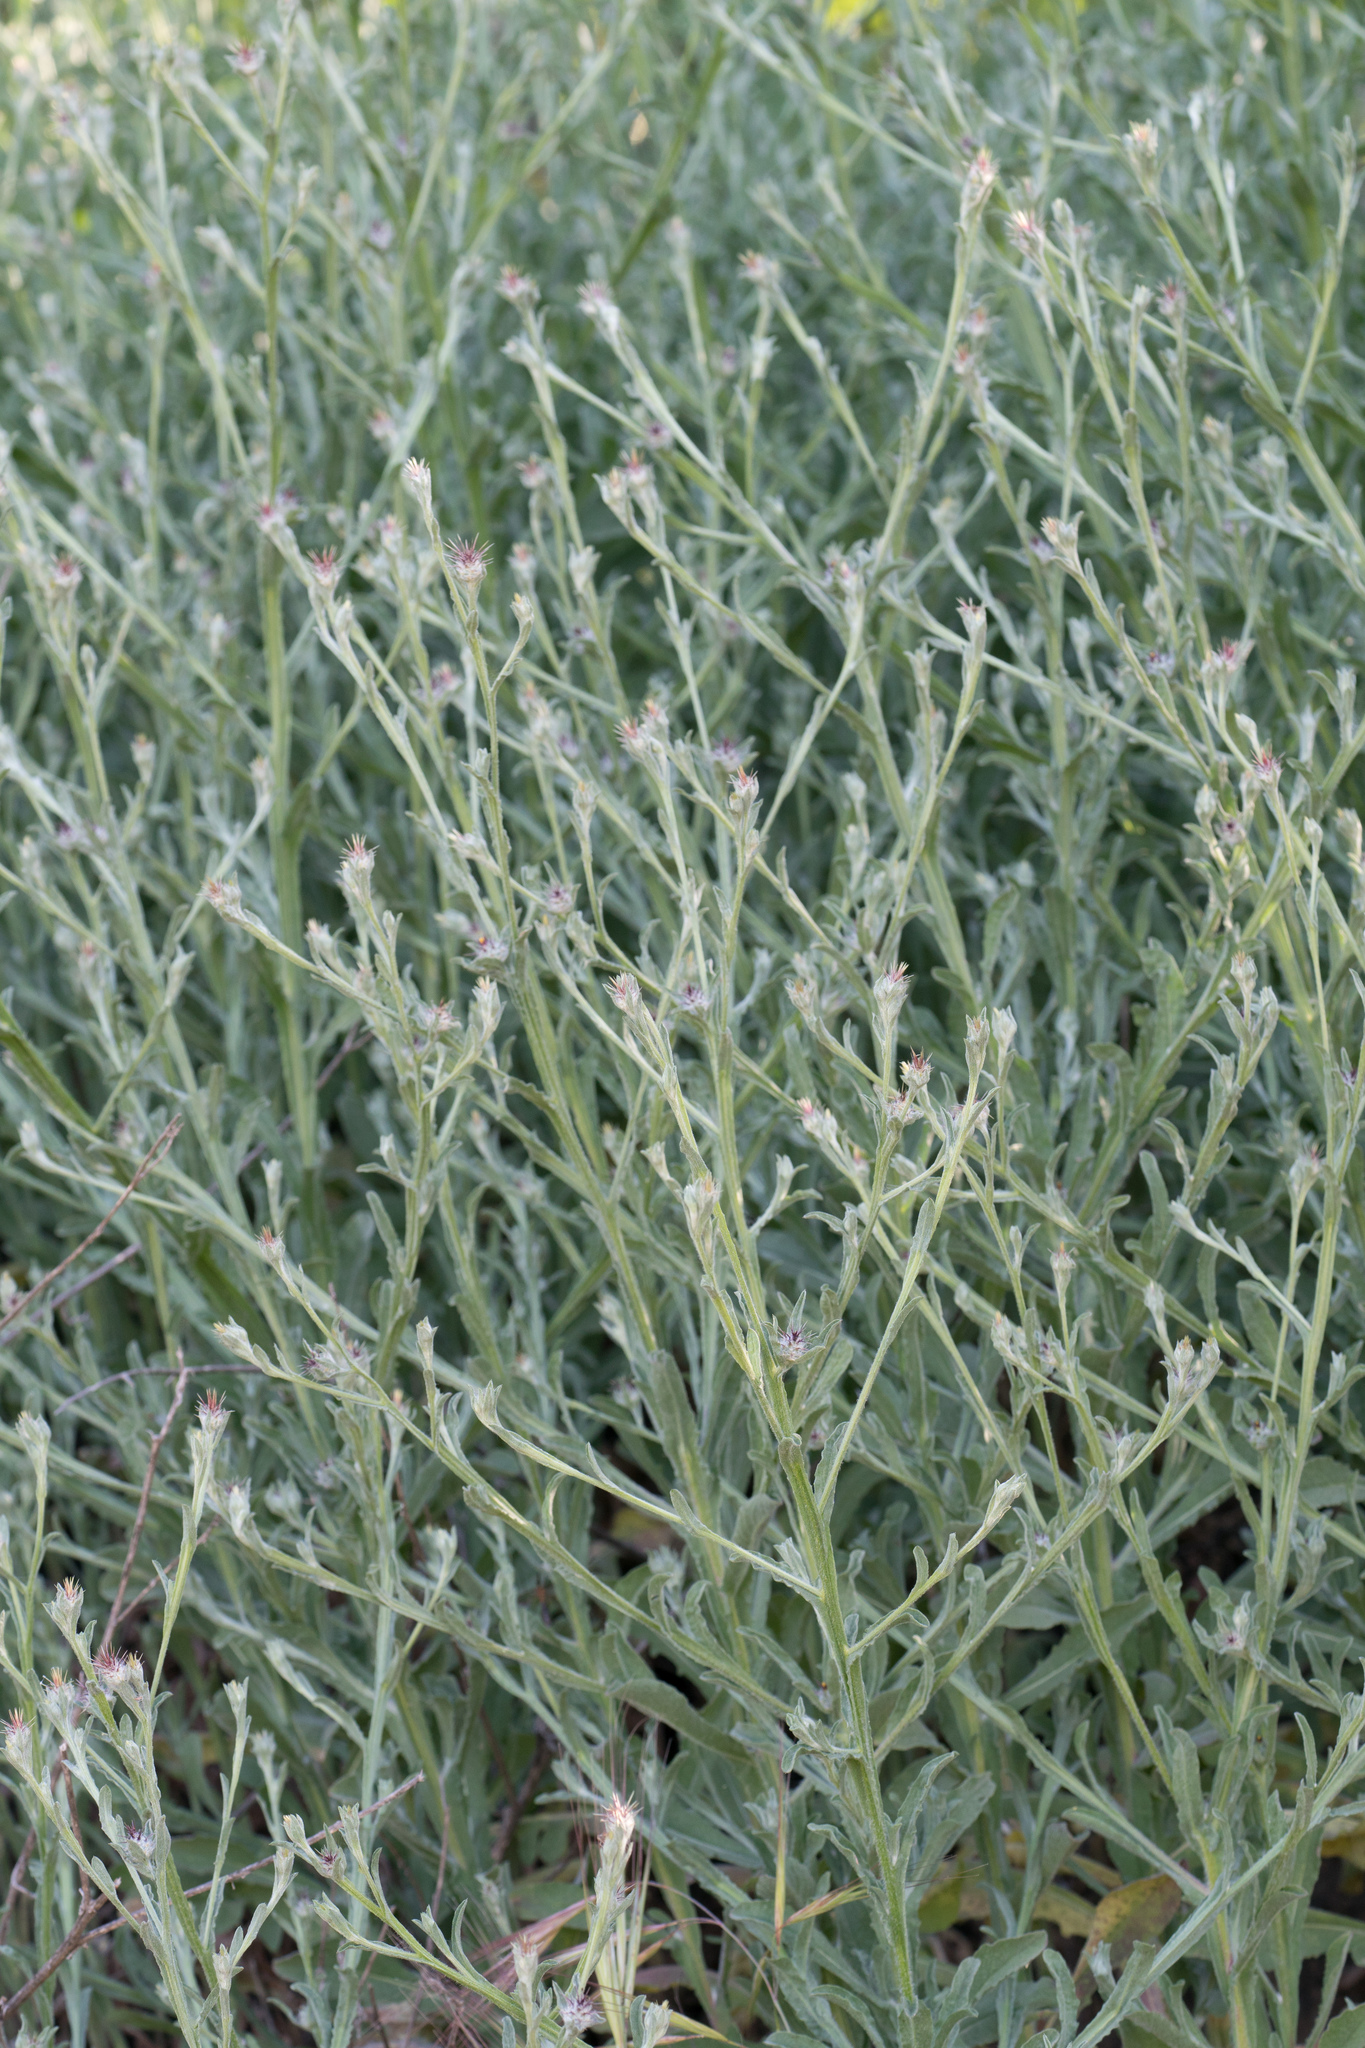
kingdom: Plantae
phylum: Tracheophyta
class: Magnoliopsida
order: Asterales
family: Asteraceae
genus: Centaurea
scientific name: Centaurea melitensis
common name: Maltese star-thistle
